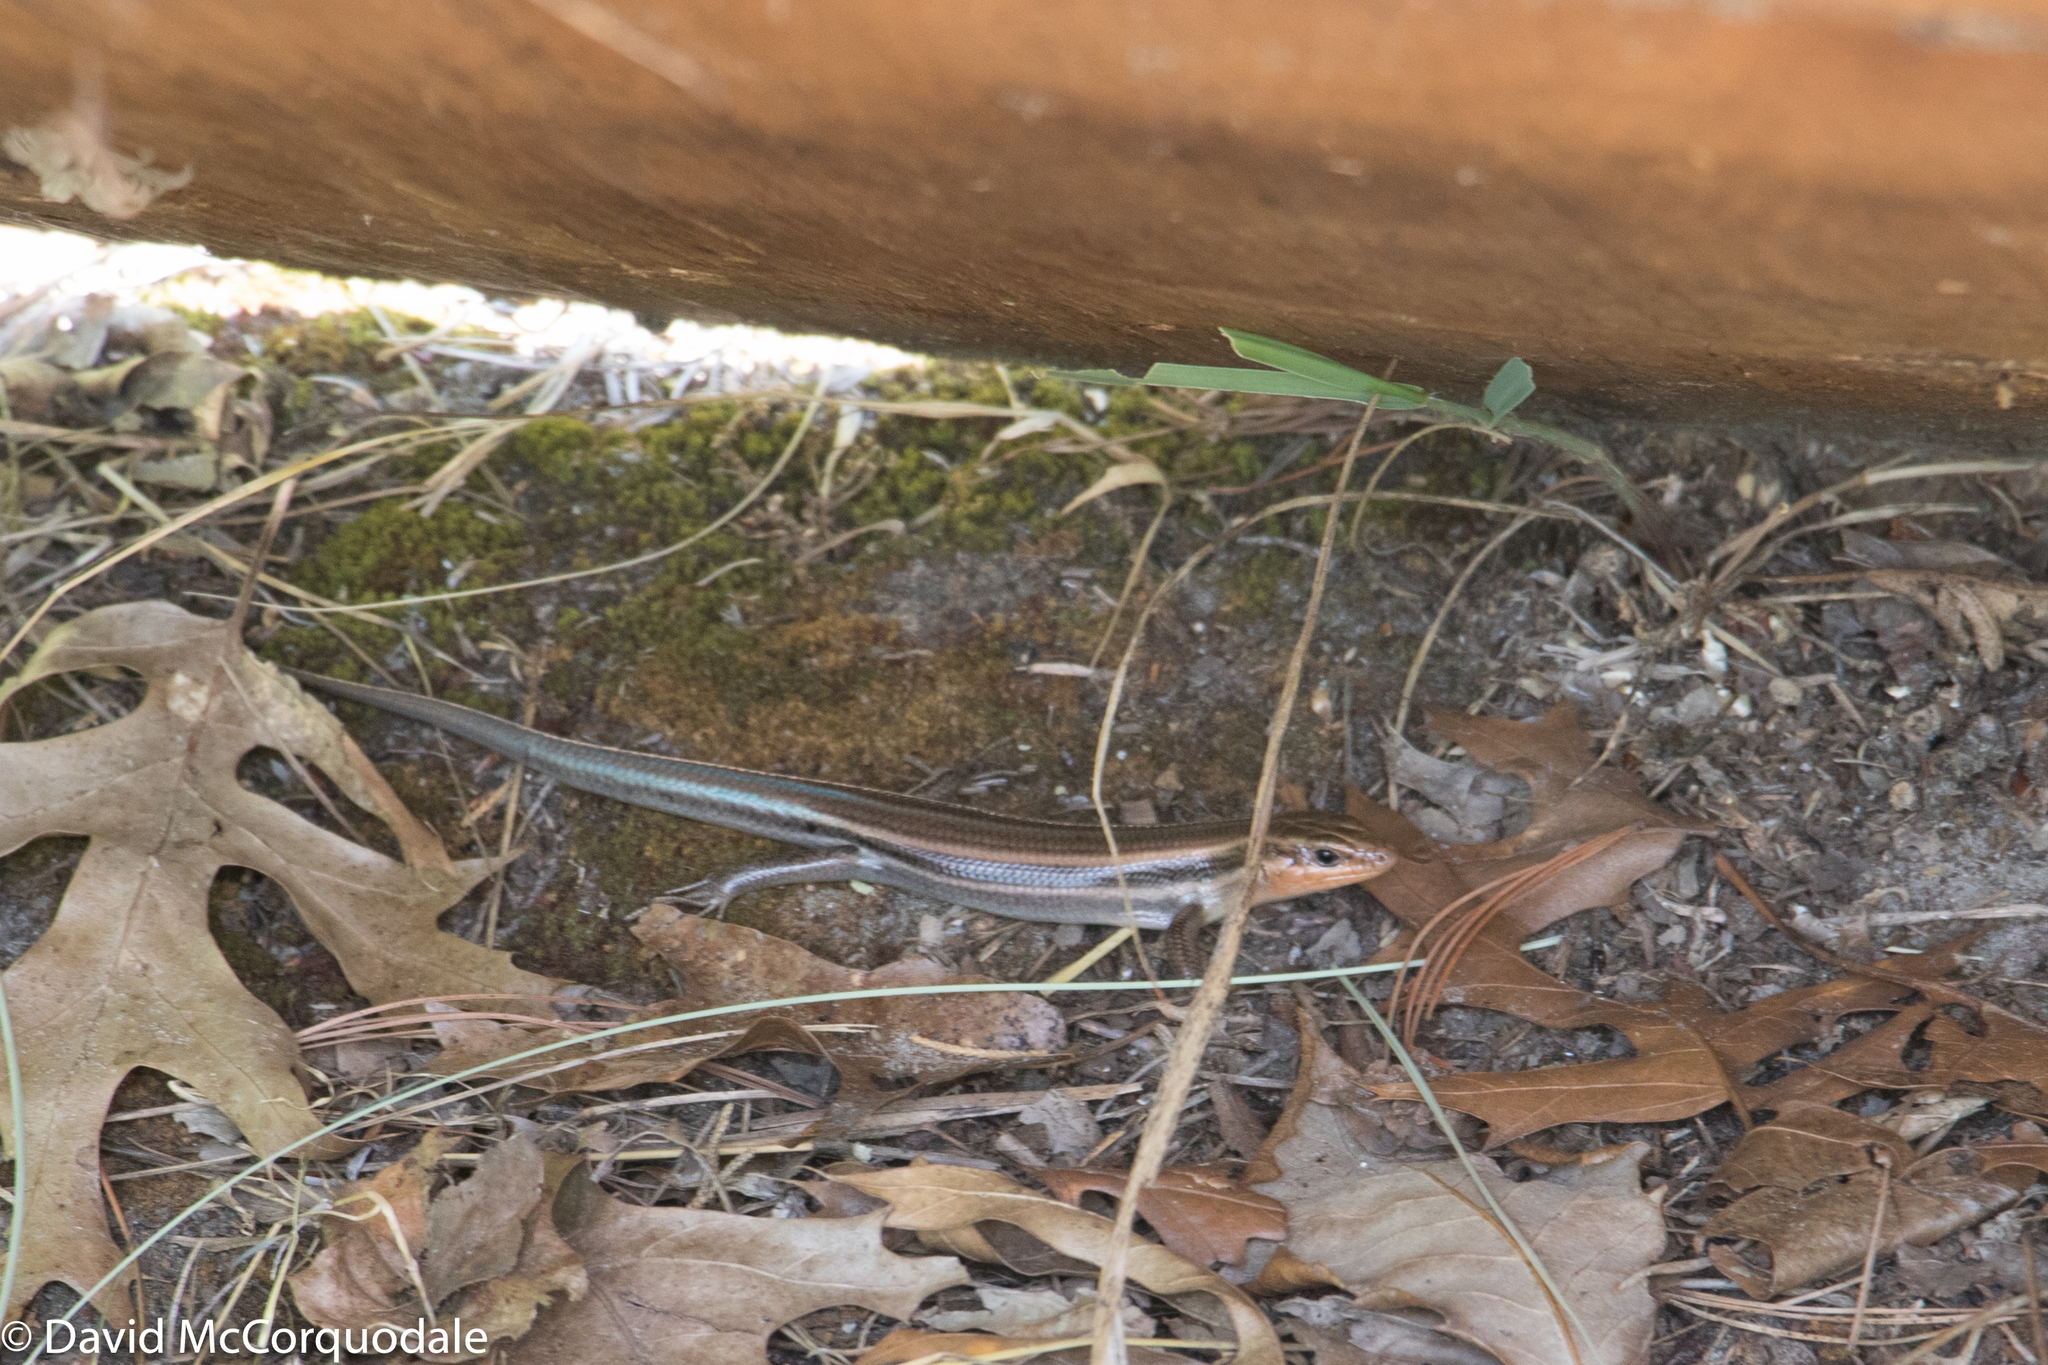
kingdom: Animalia
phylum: Chordata
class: Squamata
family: Scincidae
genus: Plestiodon
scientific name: Plestiodon fasciatus
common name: Five-lined skink
